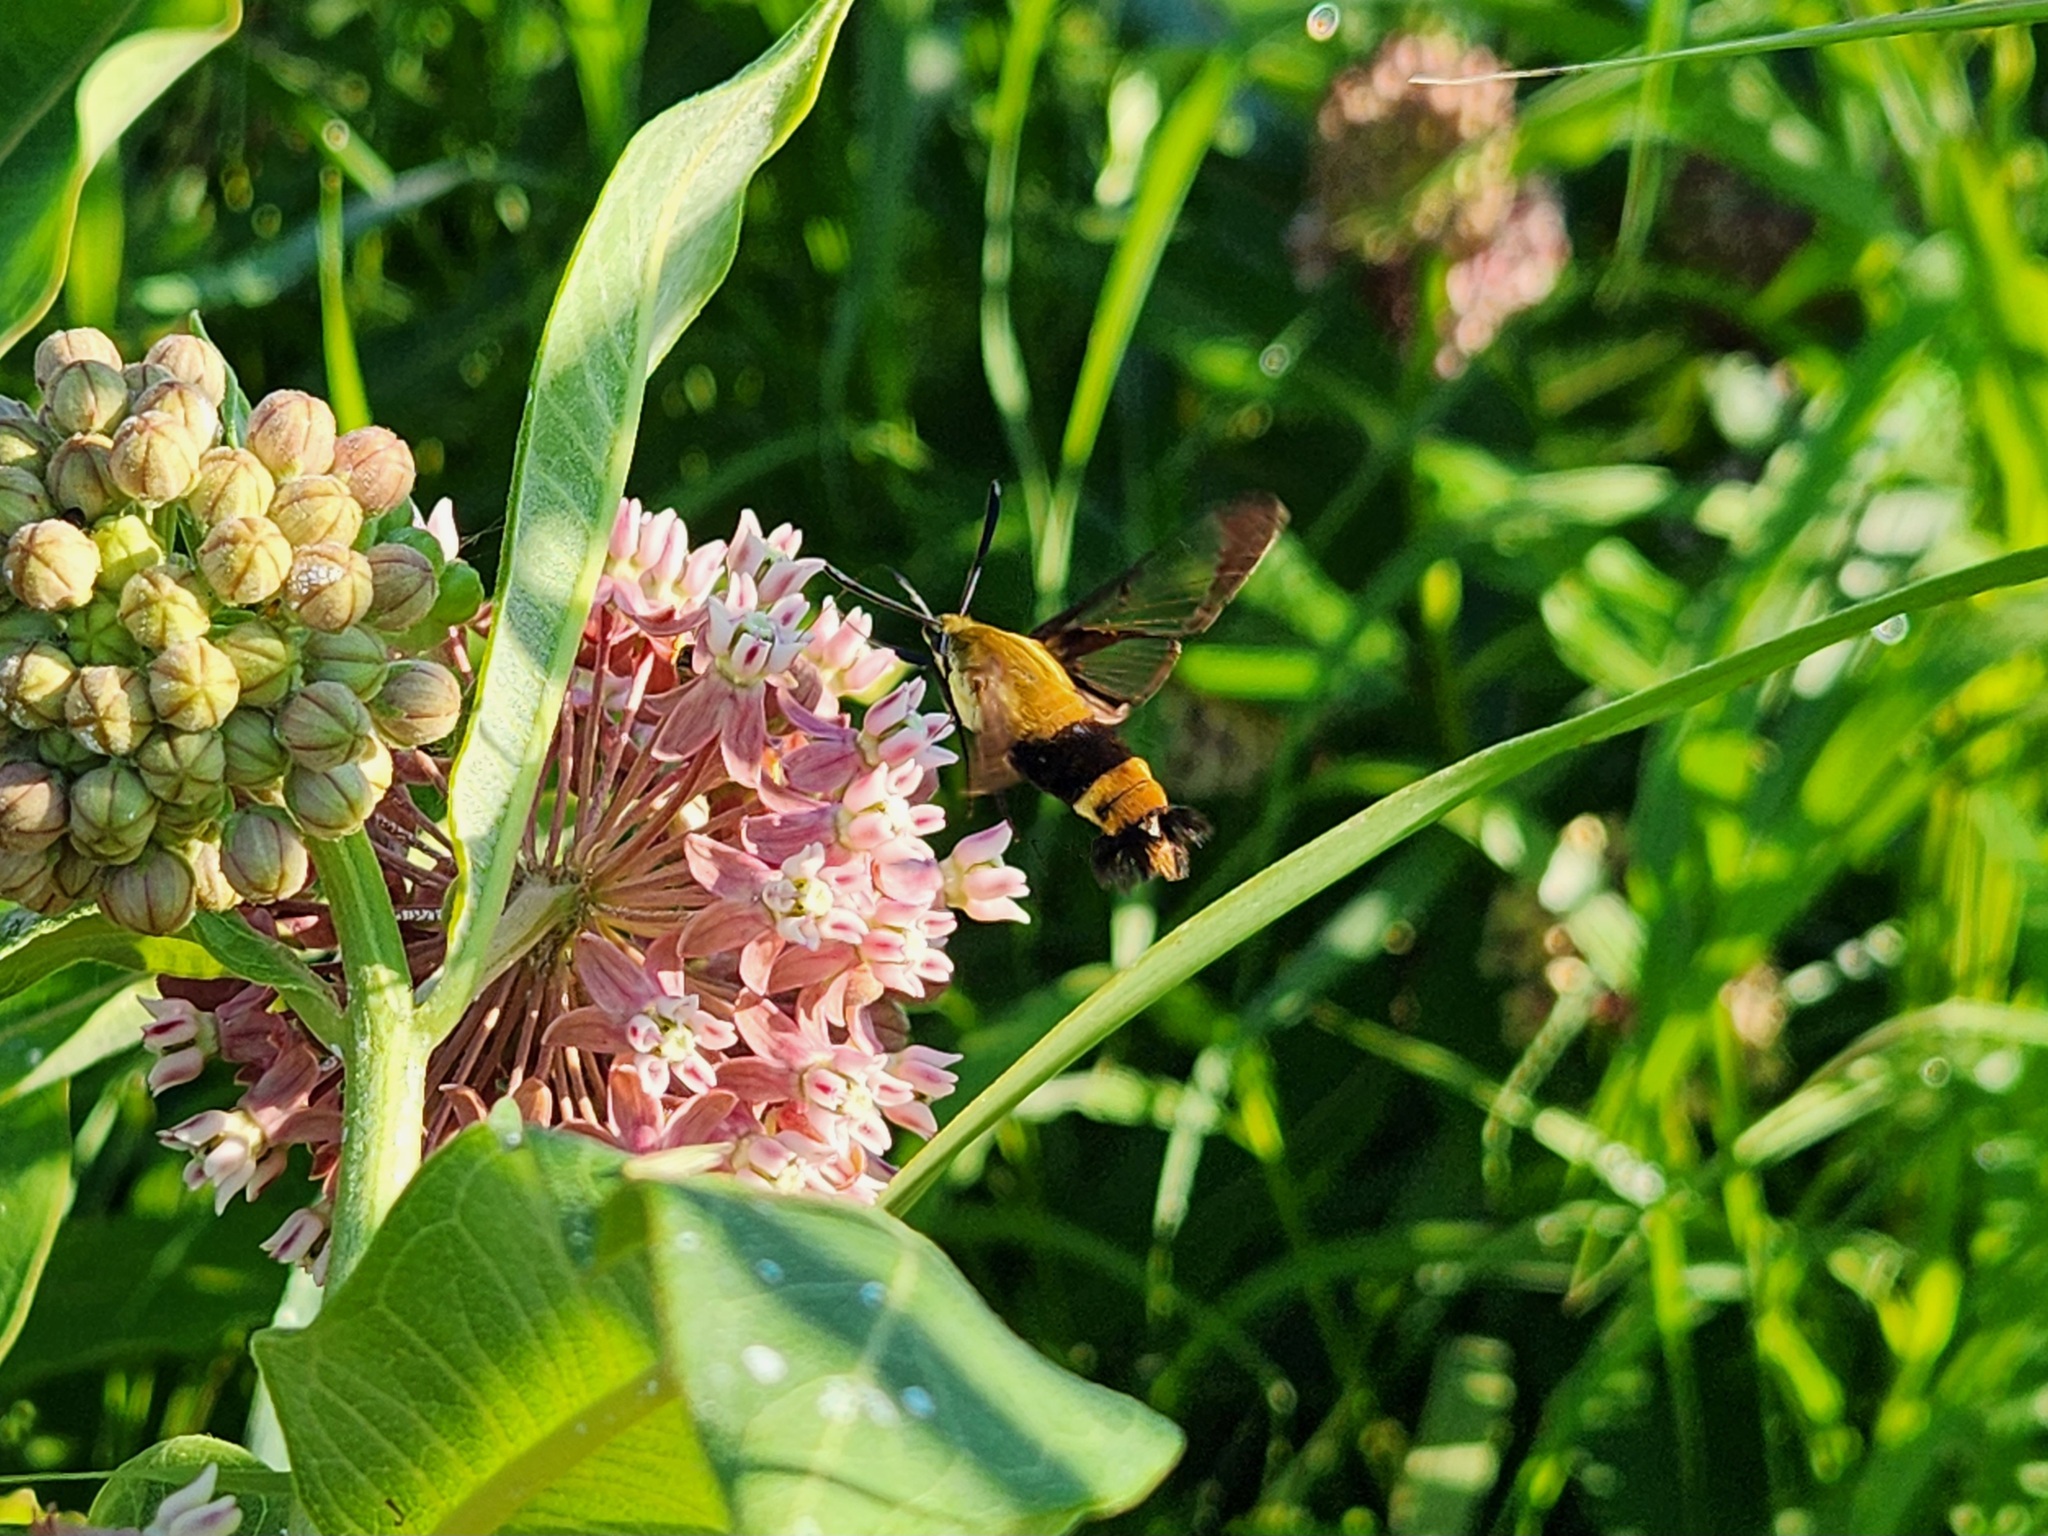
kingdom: Animalia
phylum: Arthropoda
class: Insecta
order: Lepidoptera
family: Sphingidae
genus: Hemaris
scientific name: Hemaris diffinis
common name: Bumblebee moth
